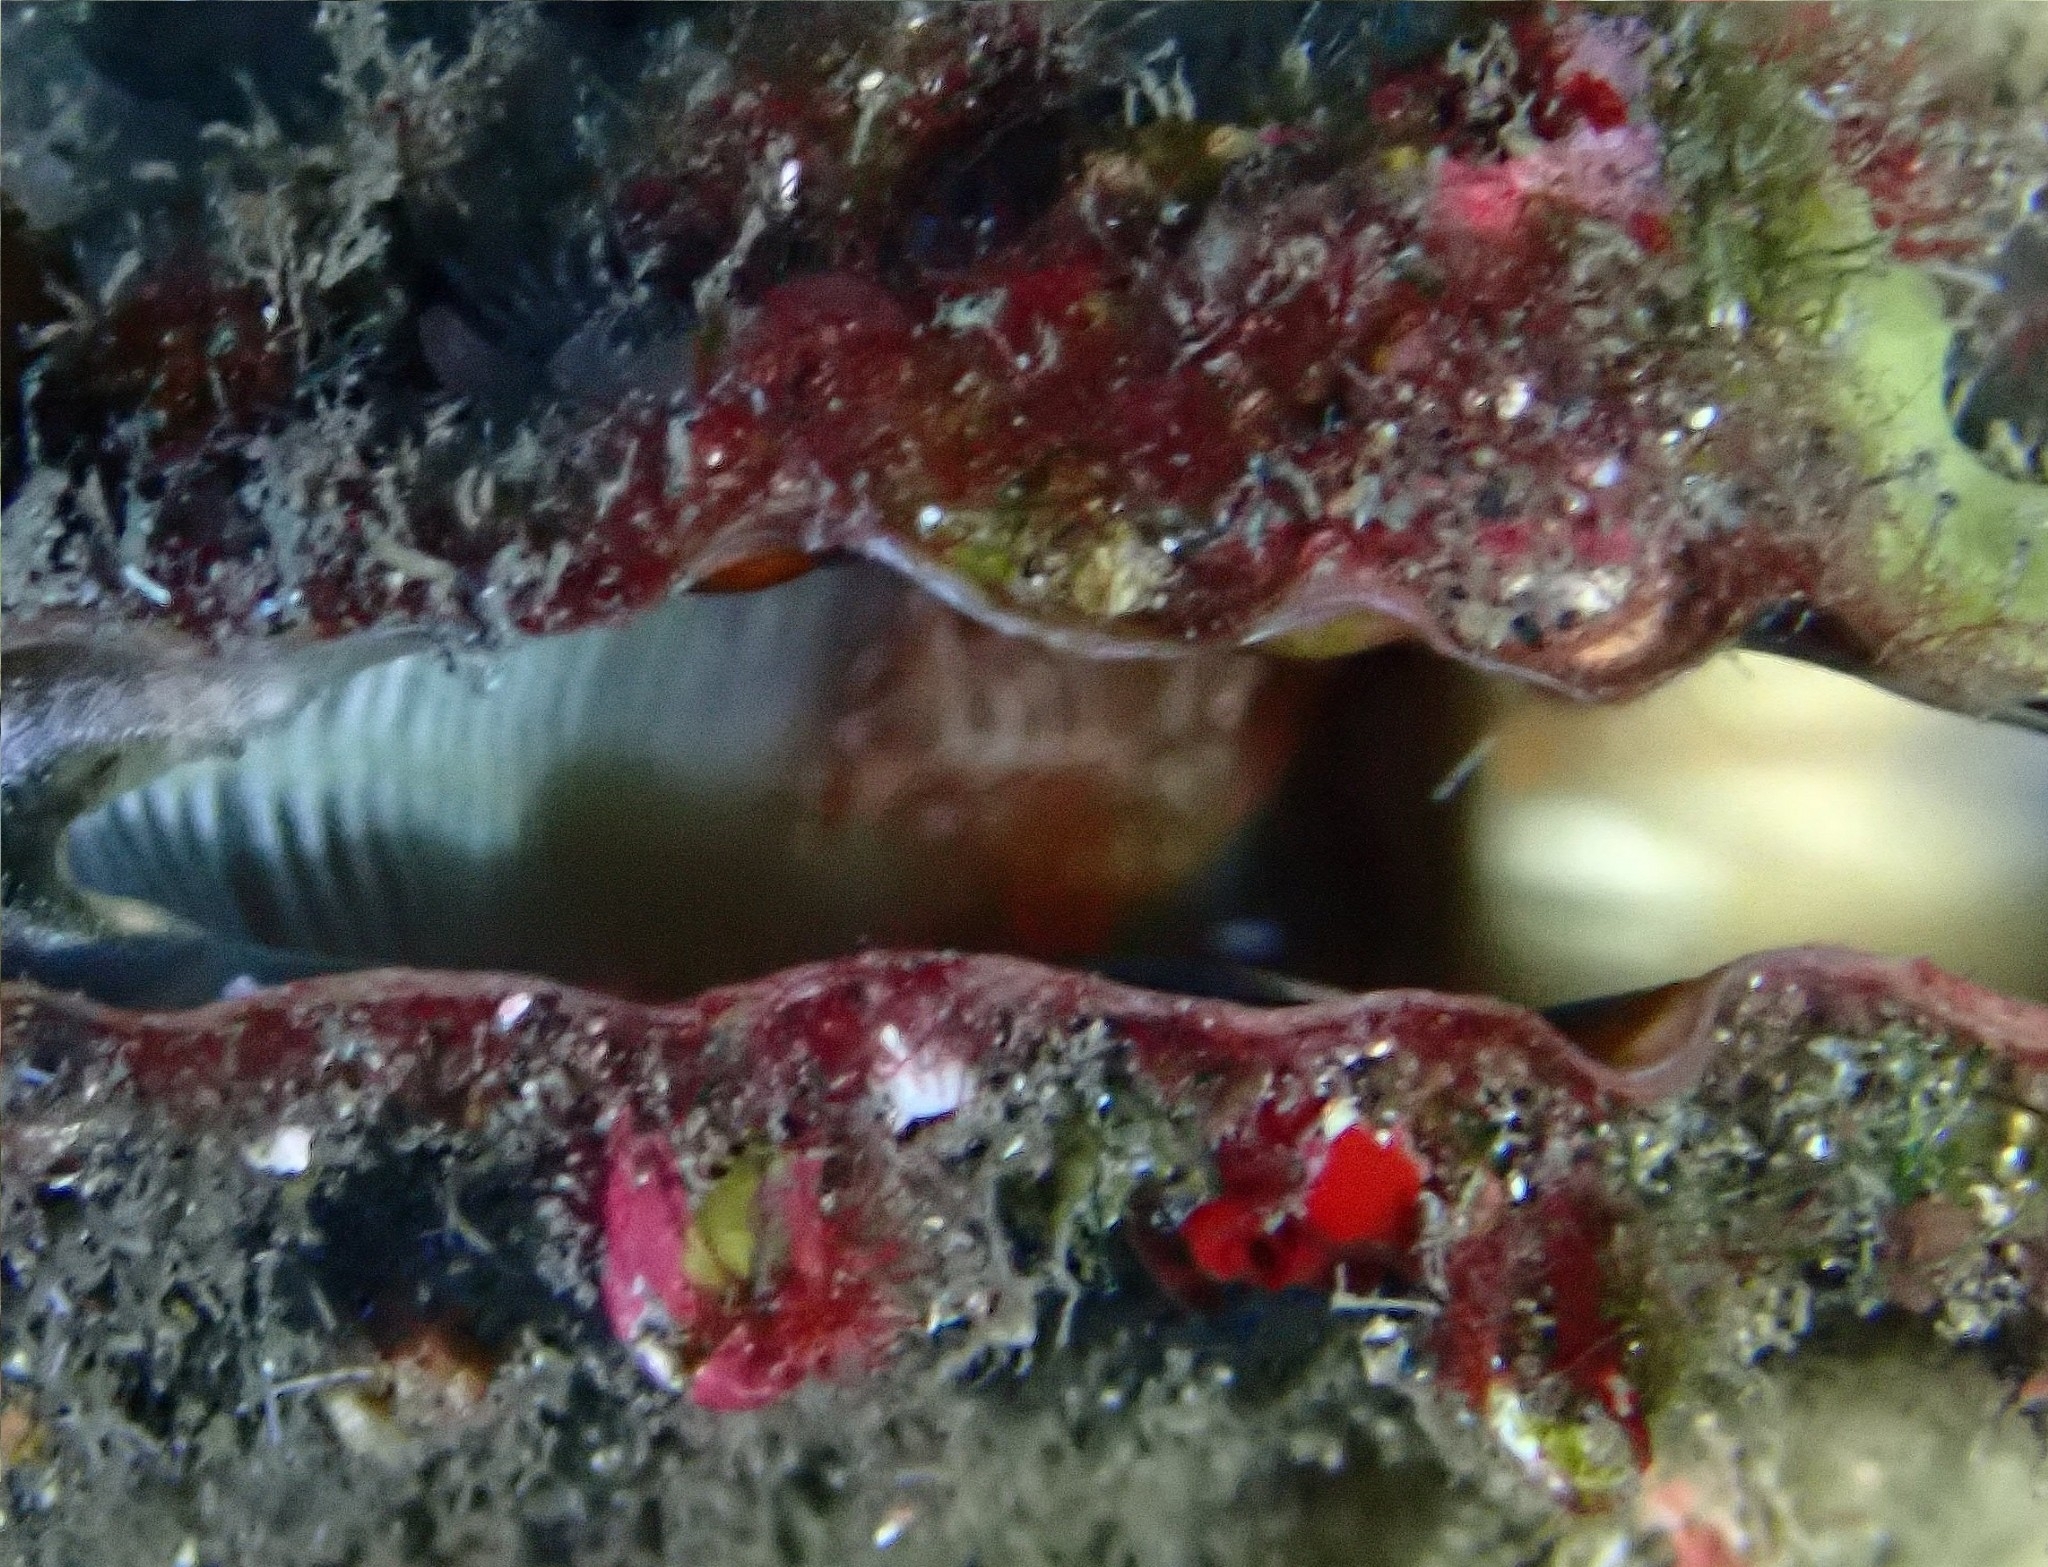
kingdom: Animalia
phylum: Arthropoda
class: Malacostraca
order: Decapoda
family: Palaemonidae
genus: Pontonia
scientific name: Pontonia pinnophylax
